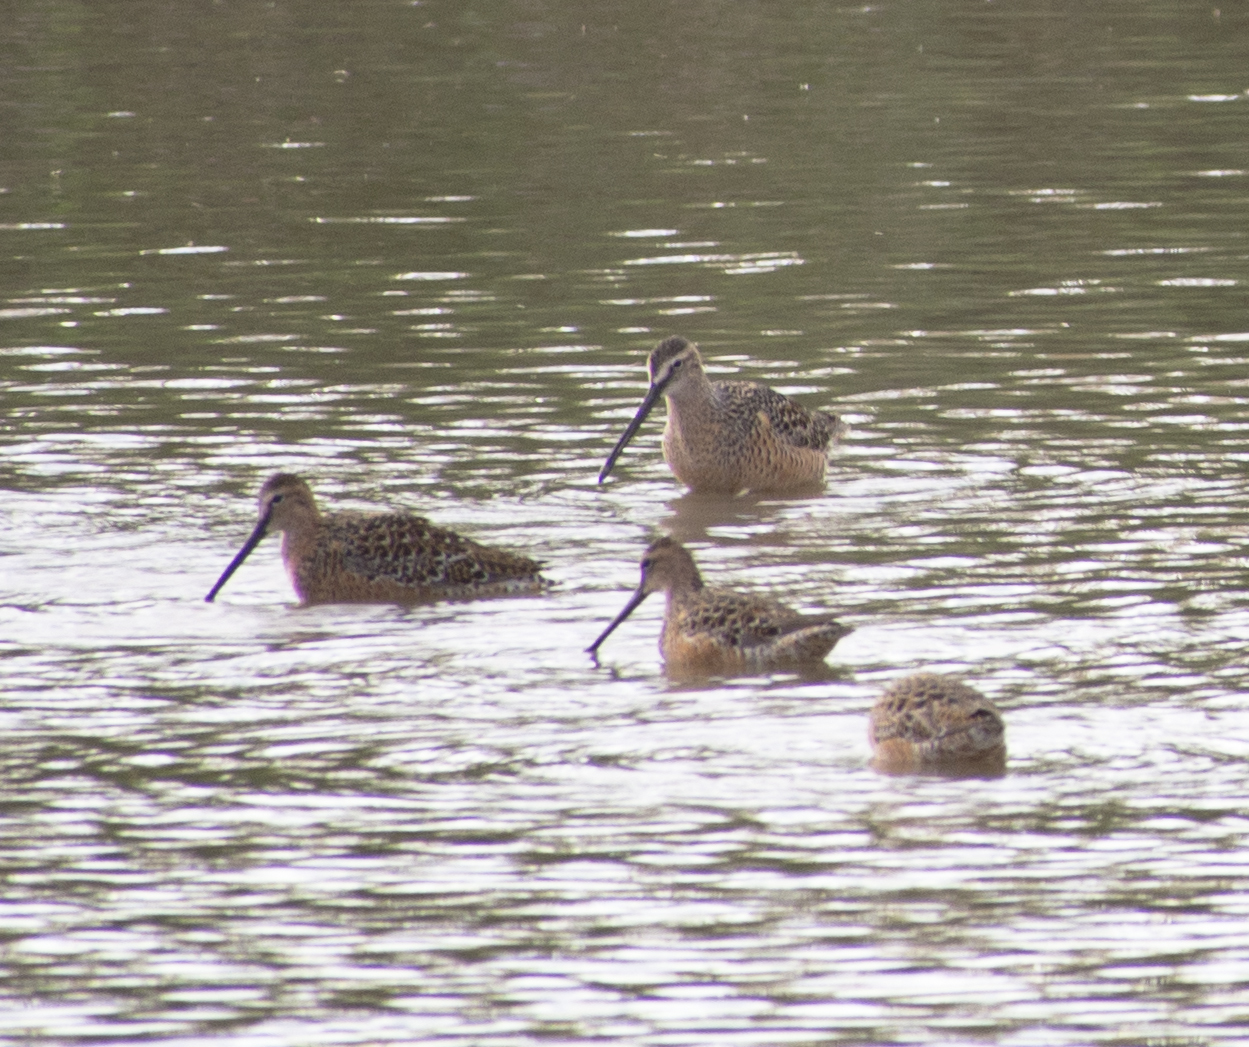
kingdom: Animalia
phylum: Chordata
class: Aves
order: Charadriiformes
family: Scolopacidae
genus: Limnodromus
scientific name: Limnodromus scolopaceus
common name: Long-billed dowitcher
